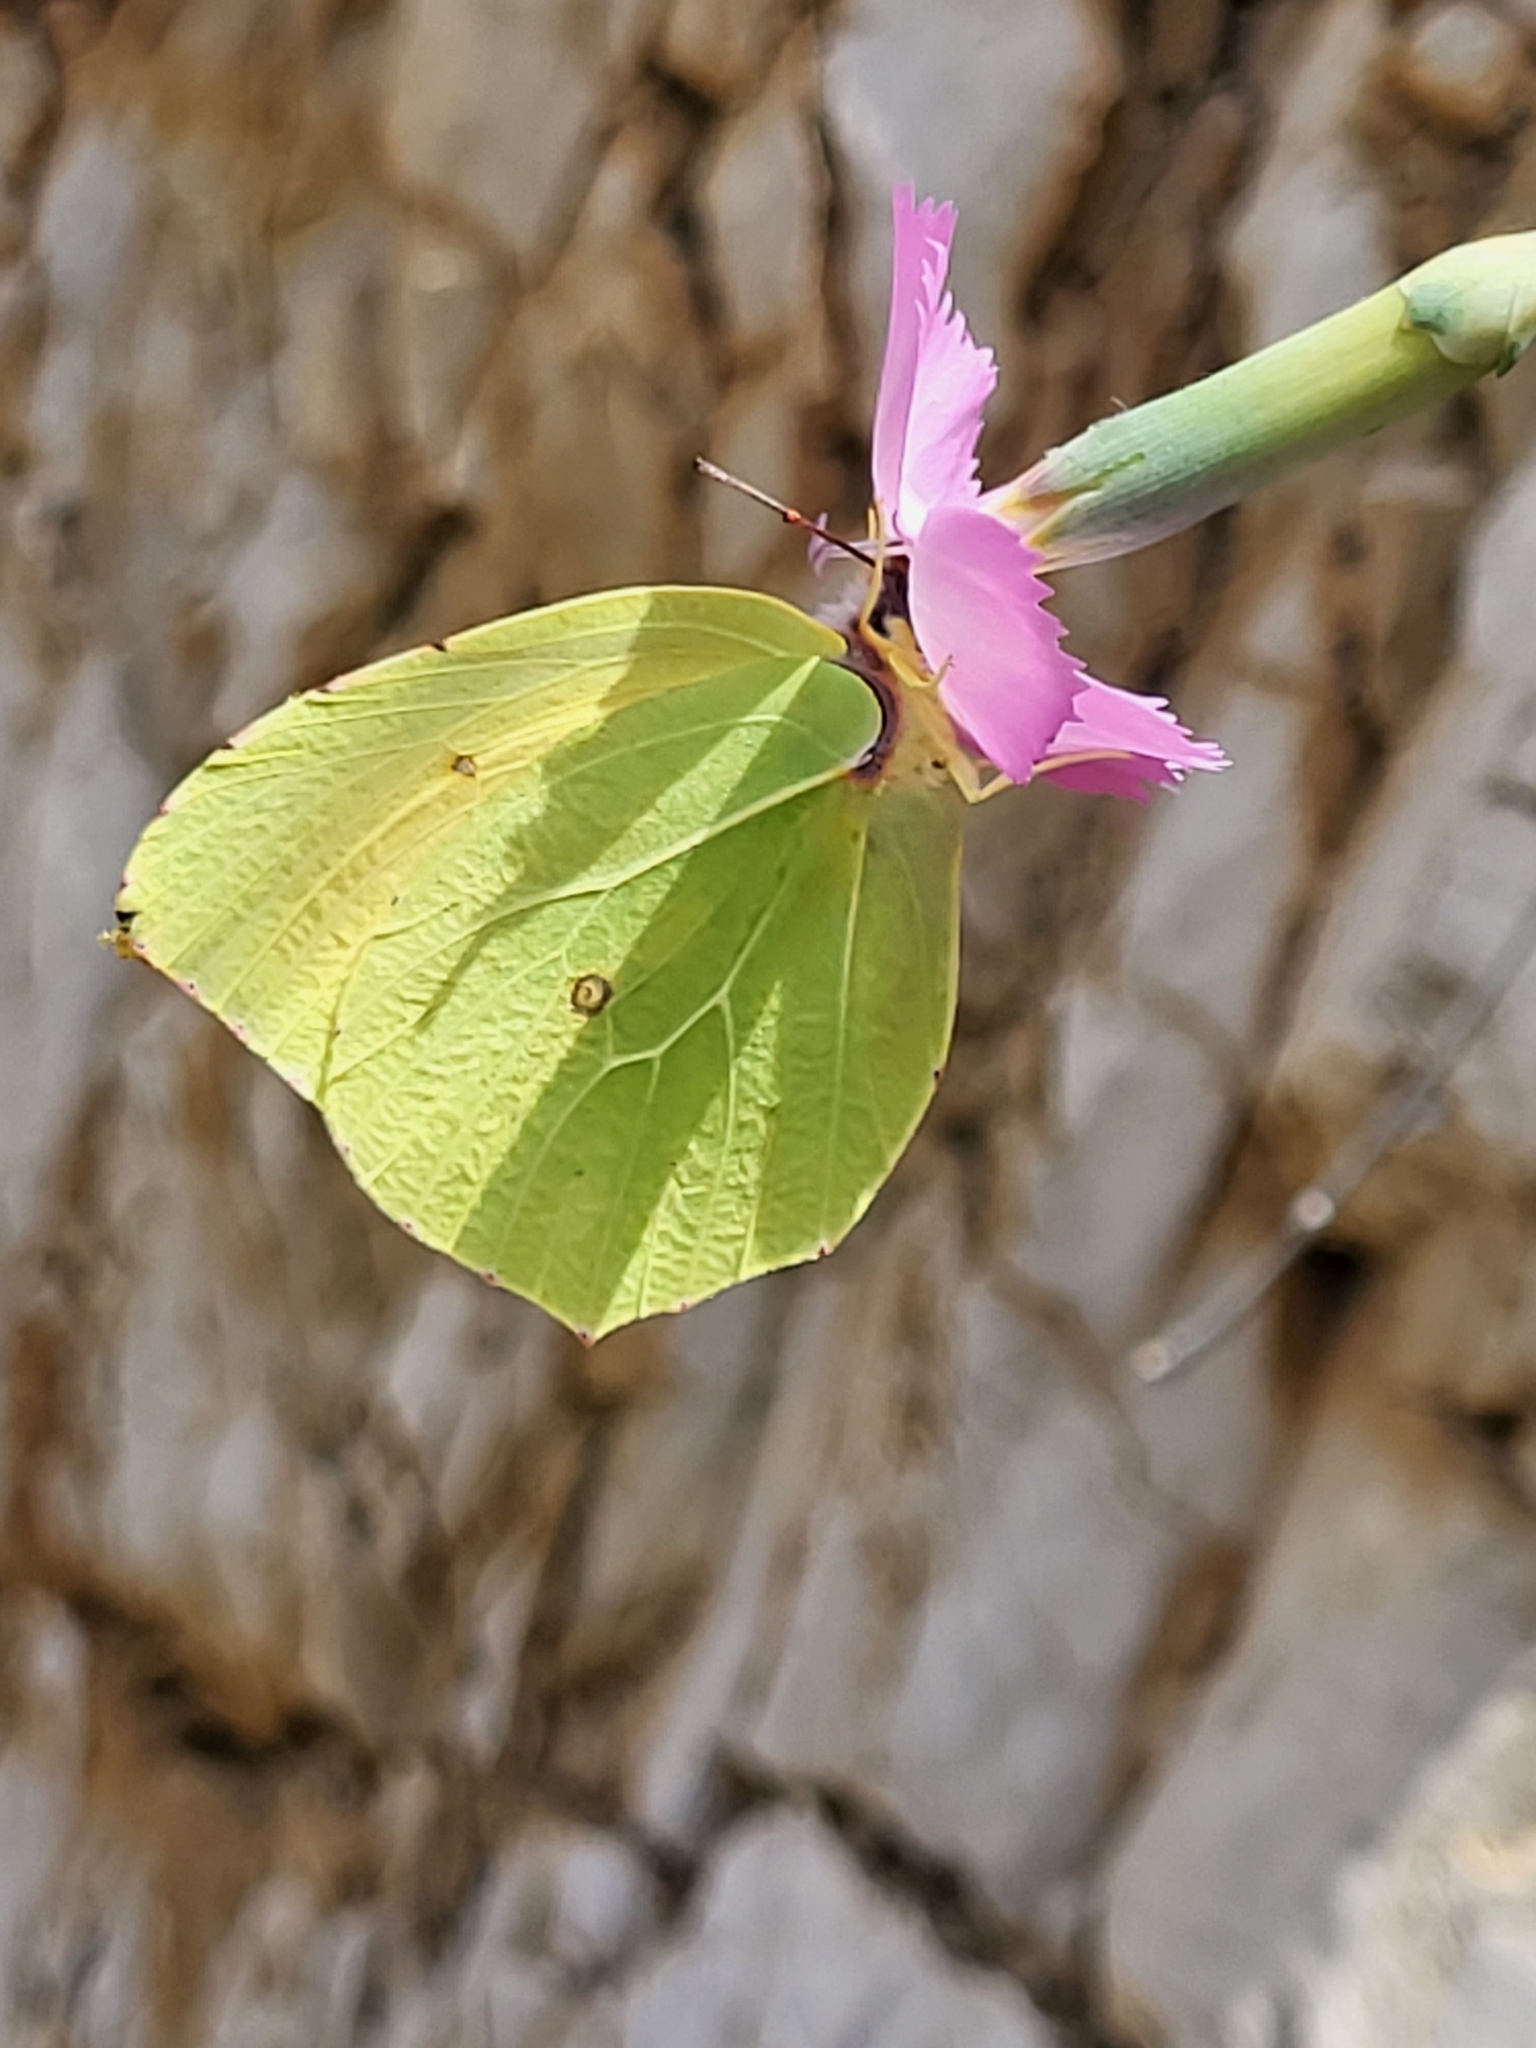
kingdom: Animalia
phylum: Arthropoda
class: Insecta
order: Lepidoptera
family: Pieridae
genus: Gonepteryx
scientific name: Gonepteryx cleopatra
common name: Cleopatra
